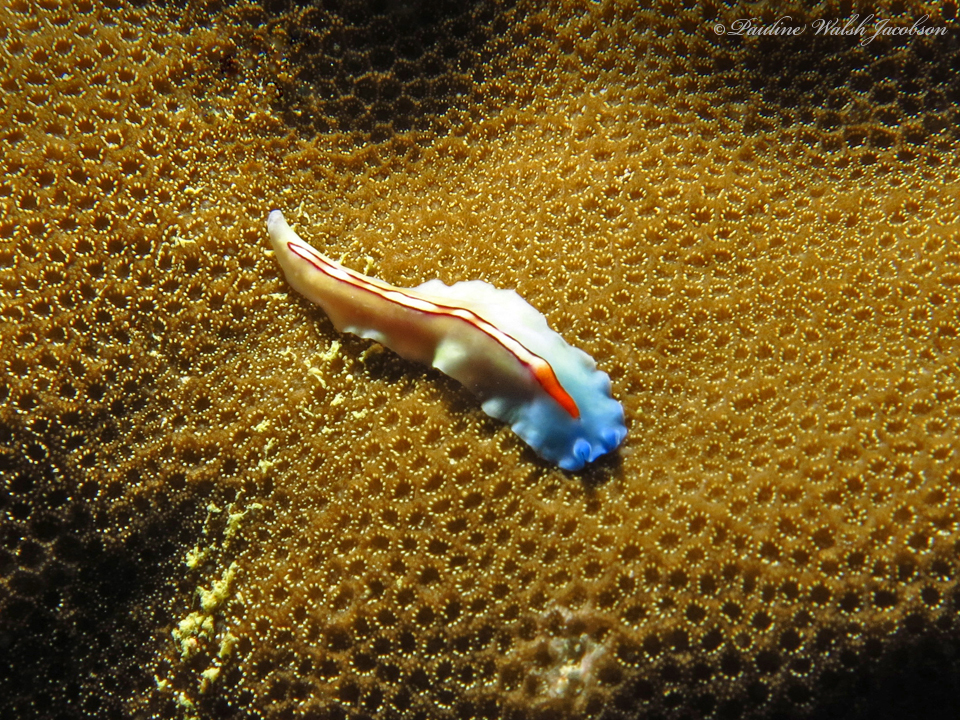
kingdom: Animalia
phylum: Platyhelminthes
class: Turbellaria
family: Pseudocerotidae
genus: Pseudoceros
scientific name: Pseudoceros liparus
